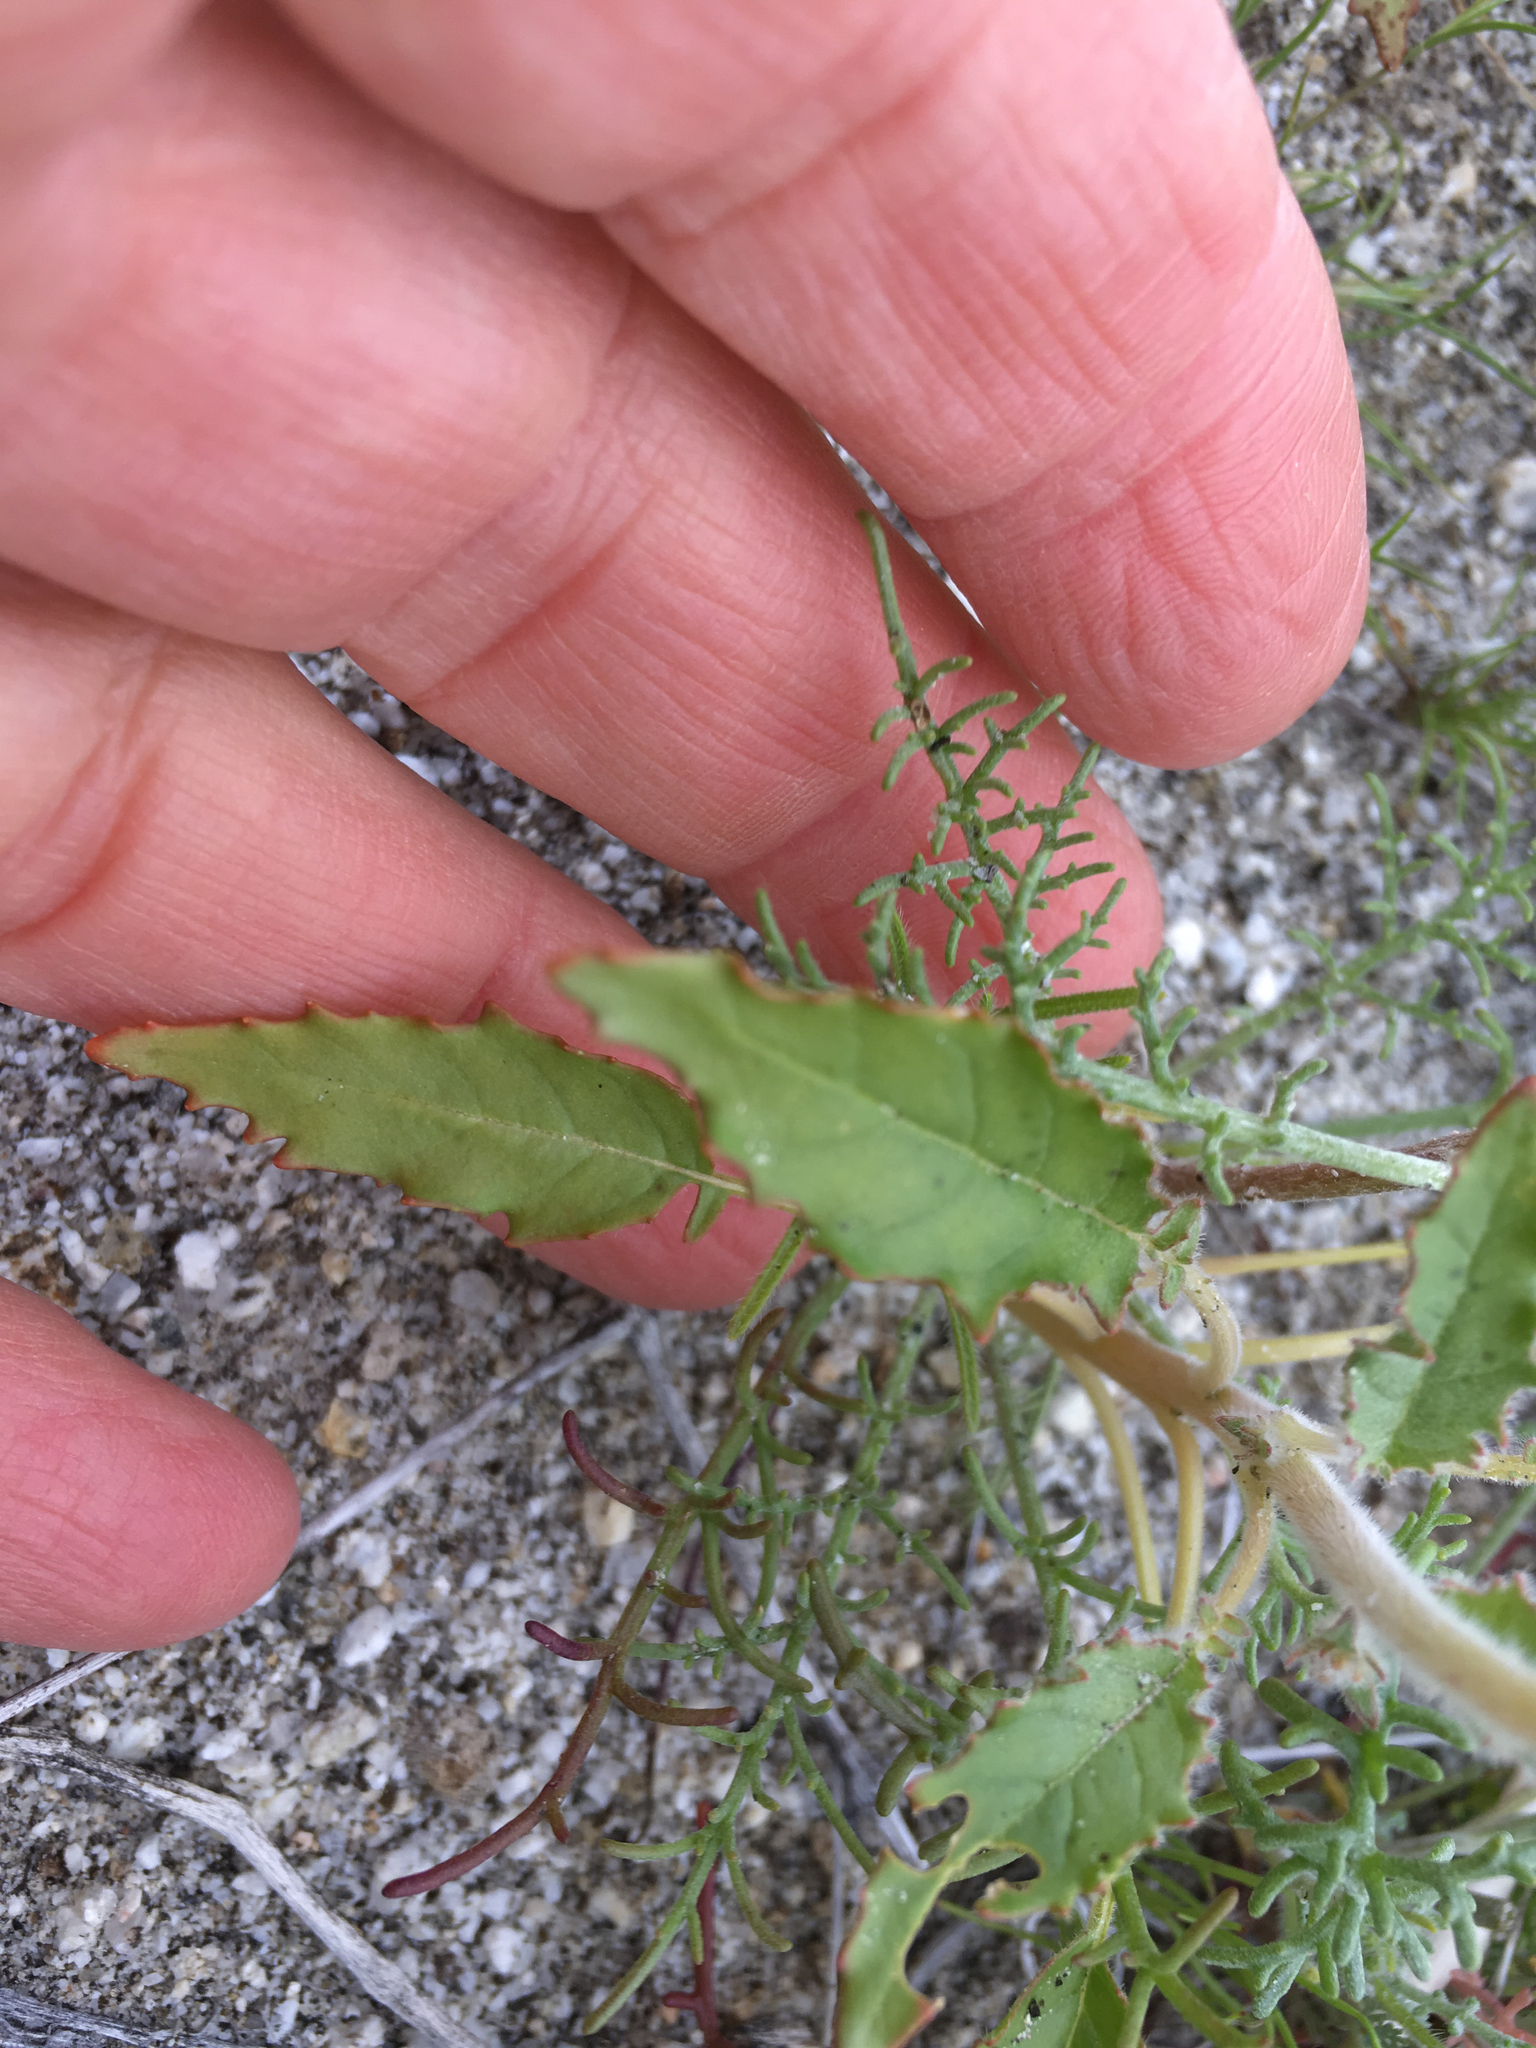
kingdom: Plantae
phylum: Tracheophyta
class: Magnoliopsida
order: Myrtales
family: Onagraceae
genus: Chylismia
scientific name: Chylismia claviformis
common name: Browneyes
